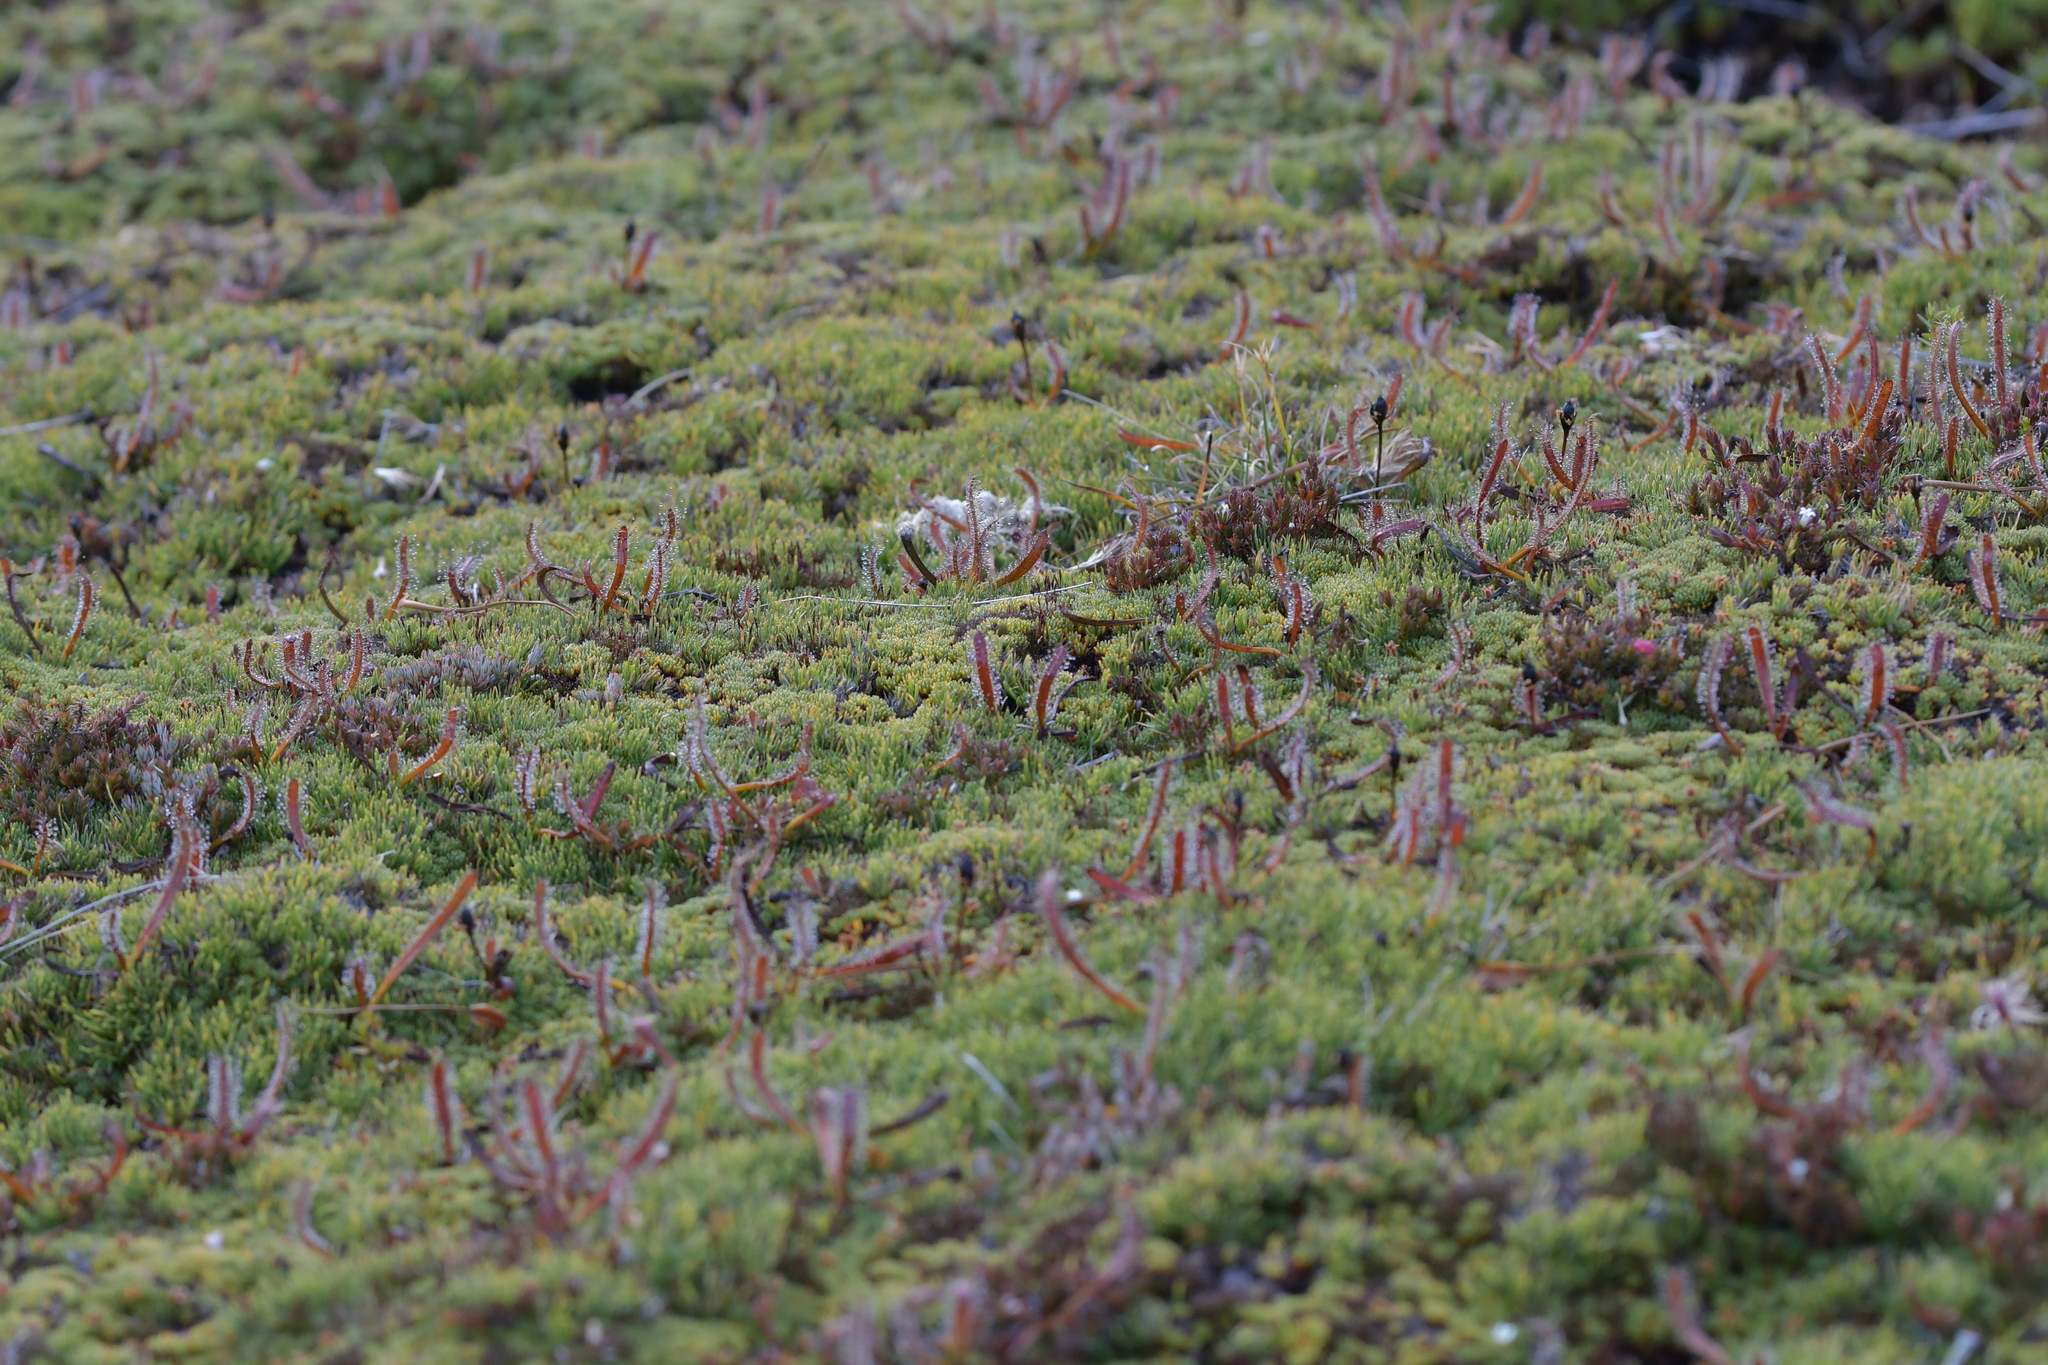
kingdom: Plantae
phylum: Tracheophyta
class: Magnoliopsida
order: Caryophyllales
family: Droseraceae
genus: Drosera
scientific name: Drosera arcturi
